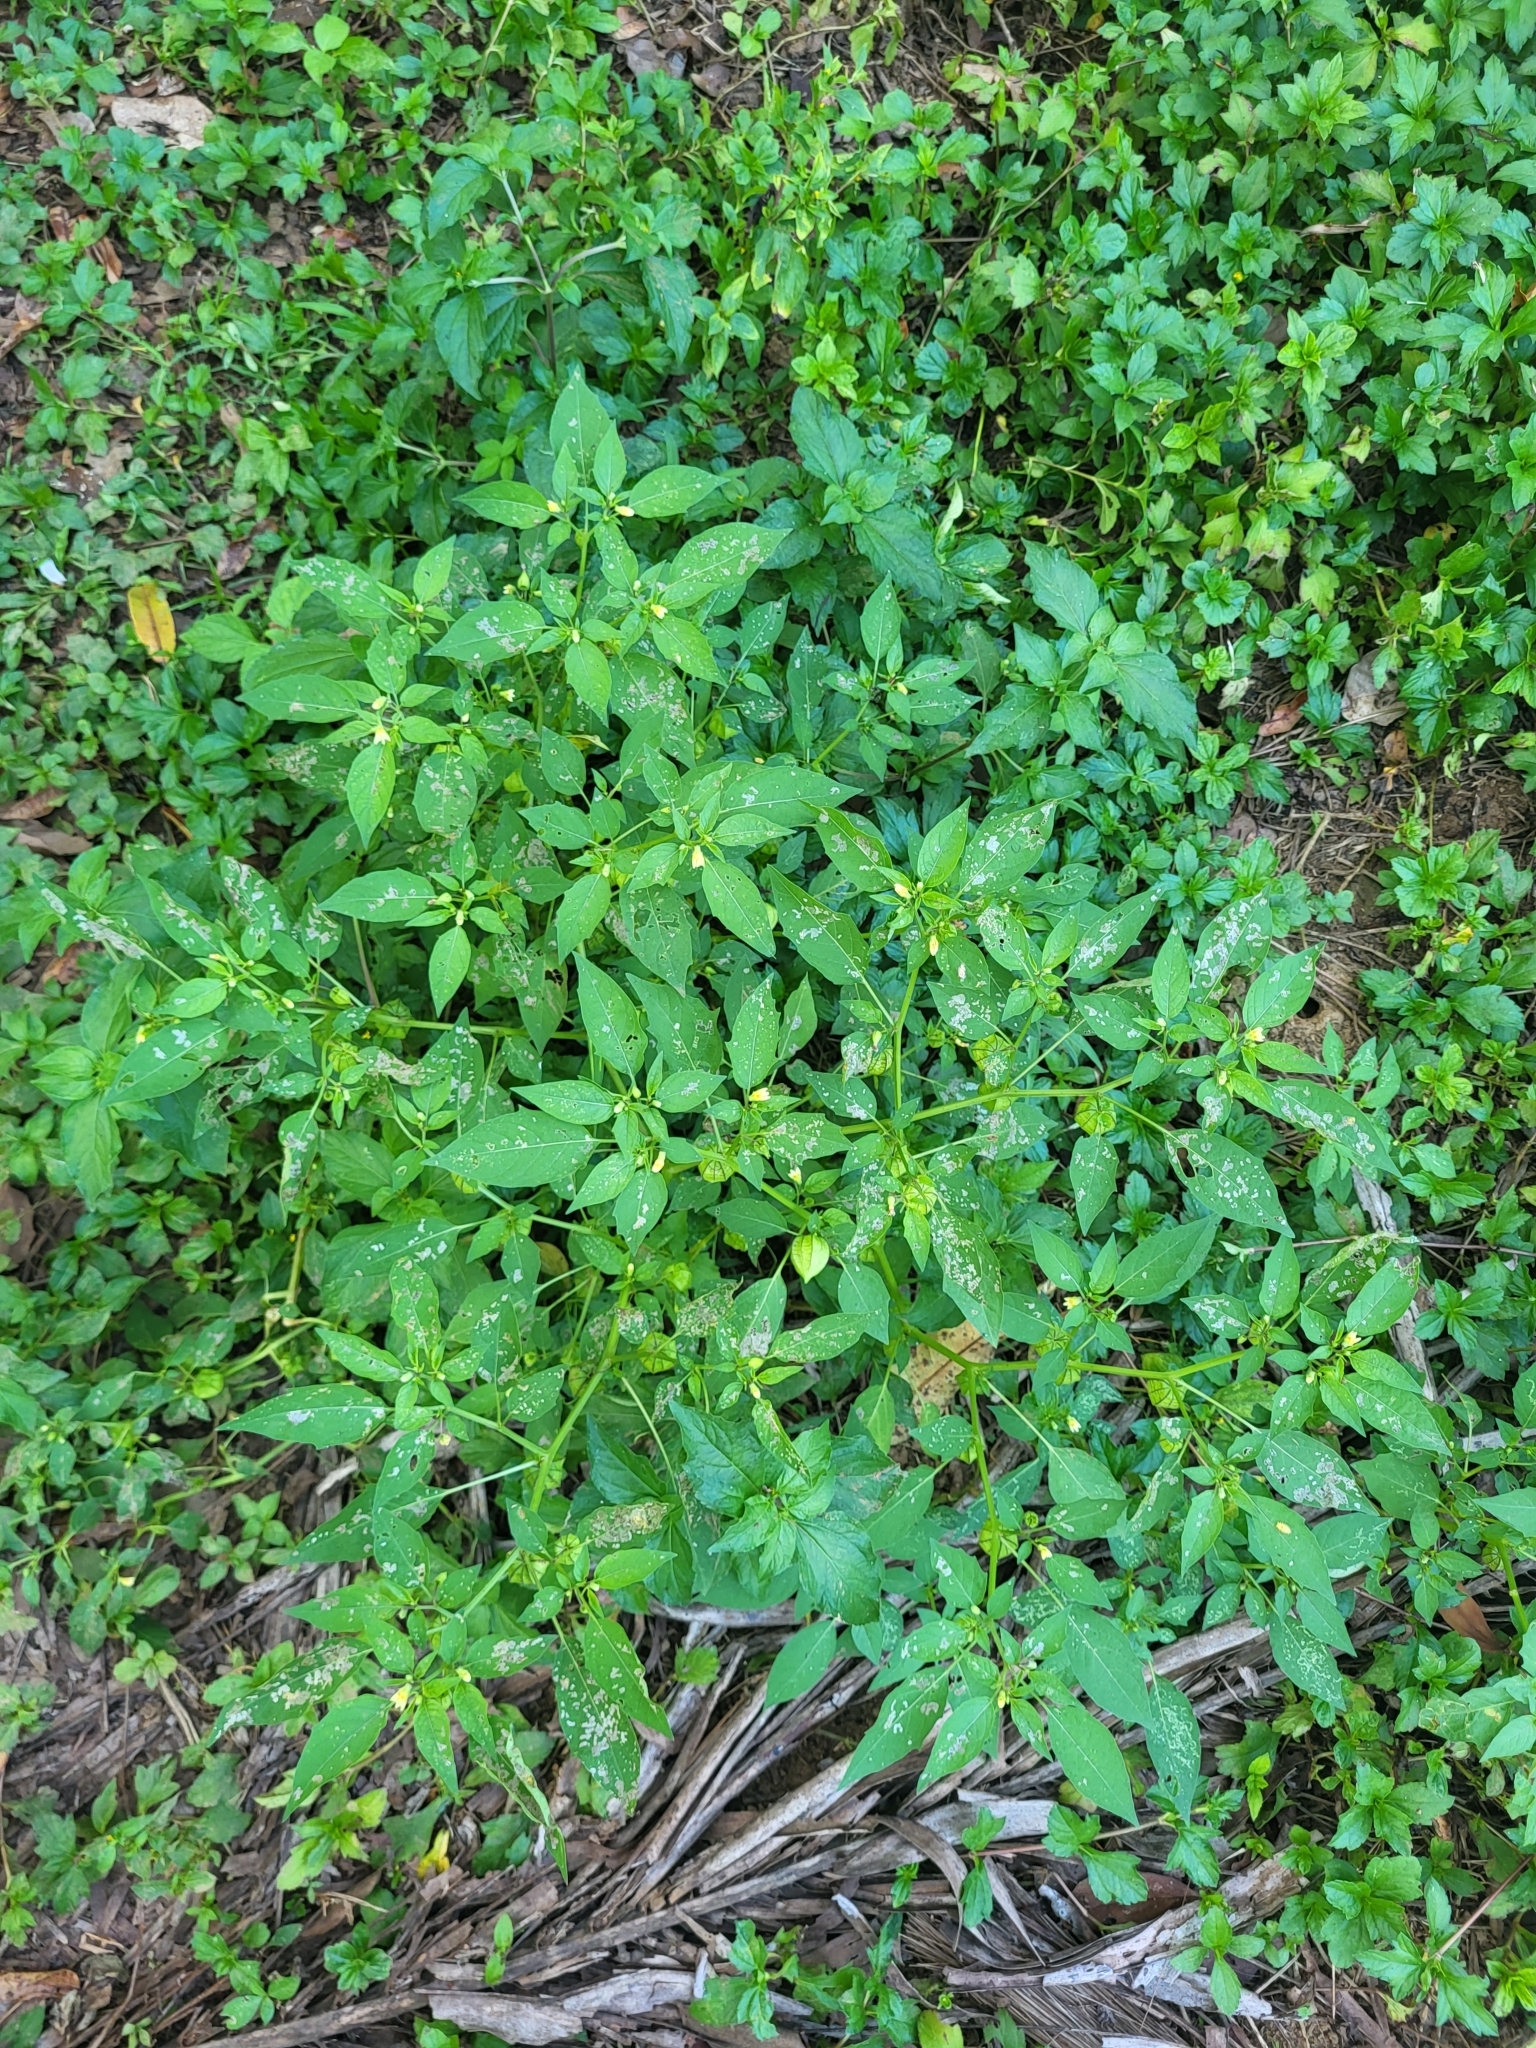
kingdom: Plantae
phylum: Tracheophyta
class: Magnoliopsida
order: Solanales
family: Solanaceae
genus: Physalis
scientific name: Physalis angulata
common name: Angular winter-cherry
